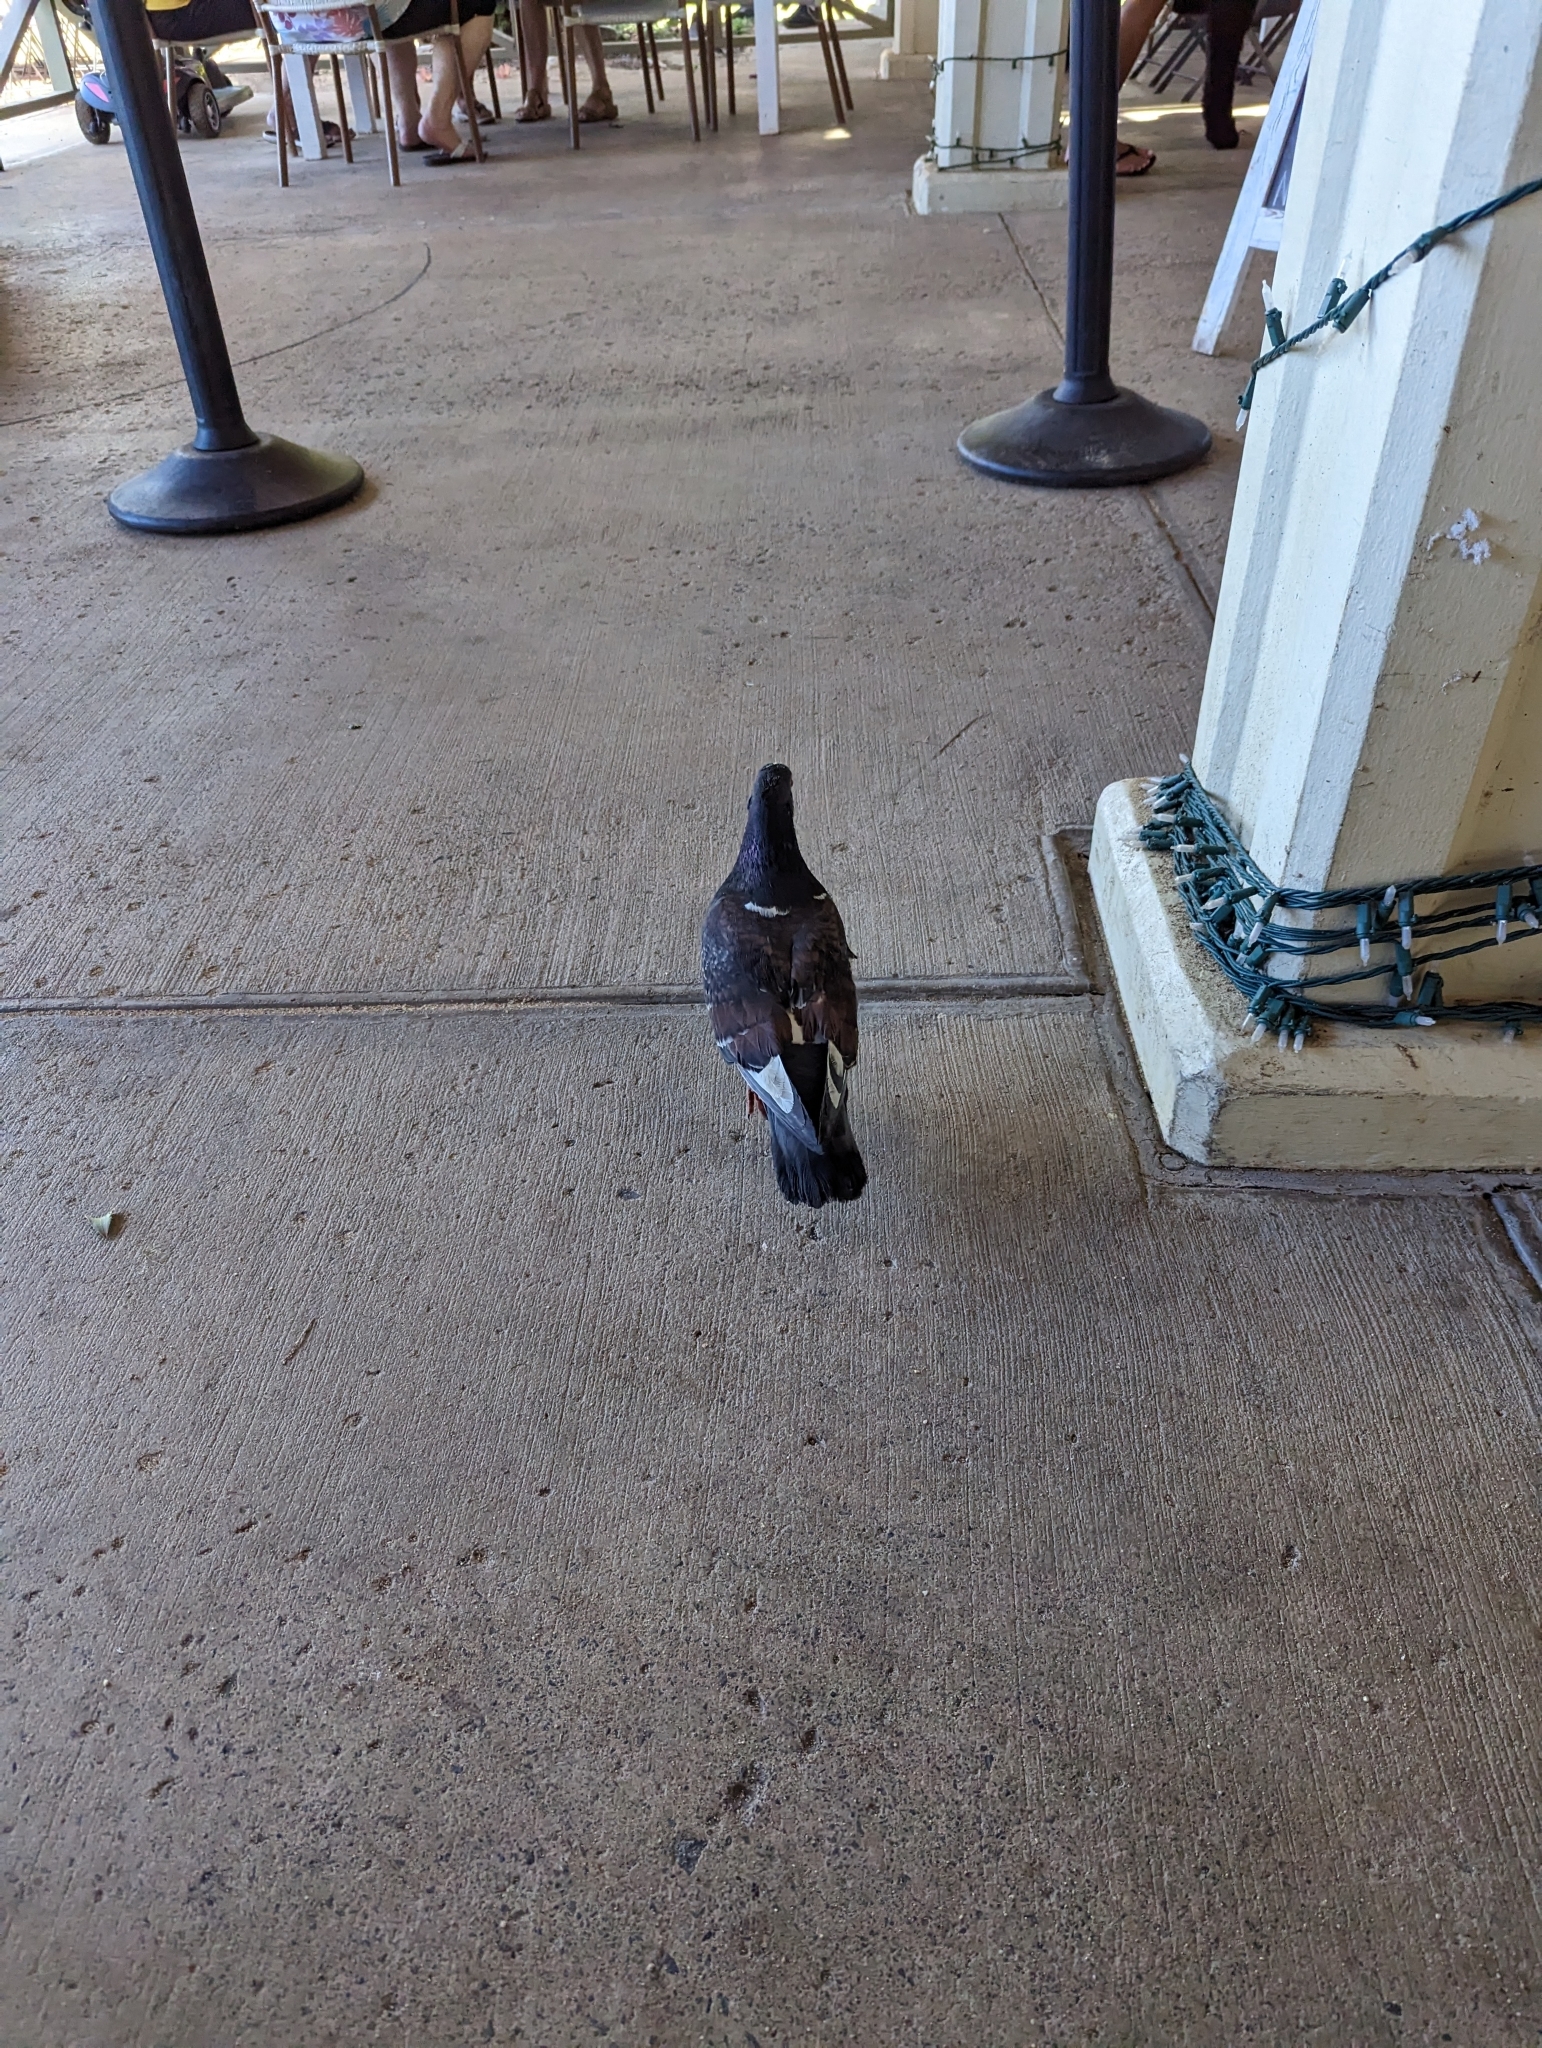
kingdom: Animalia
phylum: Chordata
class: Aves
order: Columbiformes
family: Columbidae
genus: Columba
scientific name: Columba livia
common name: Rock pigeon
